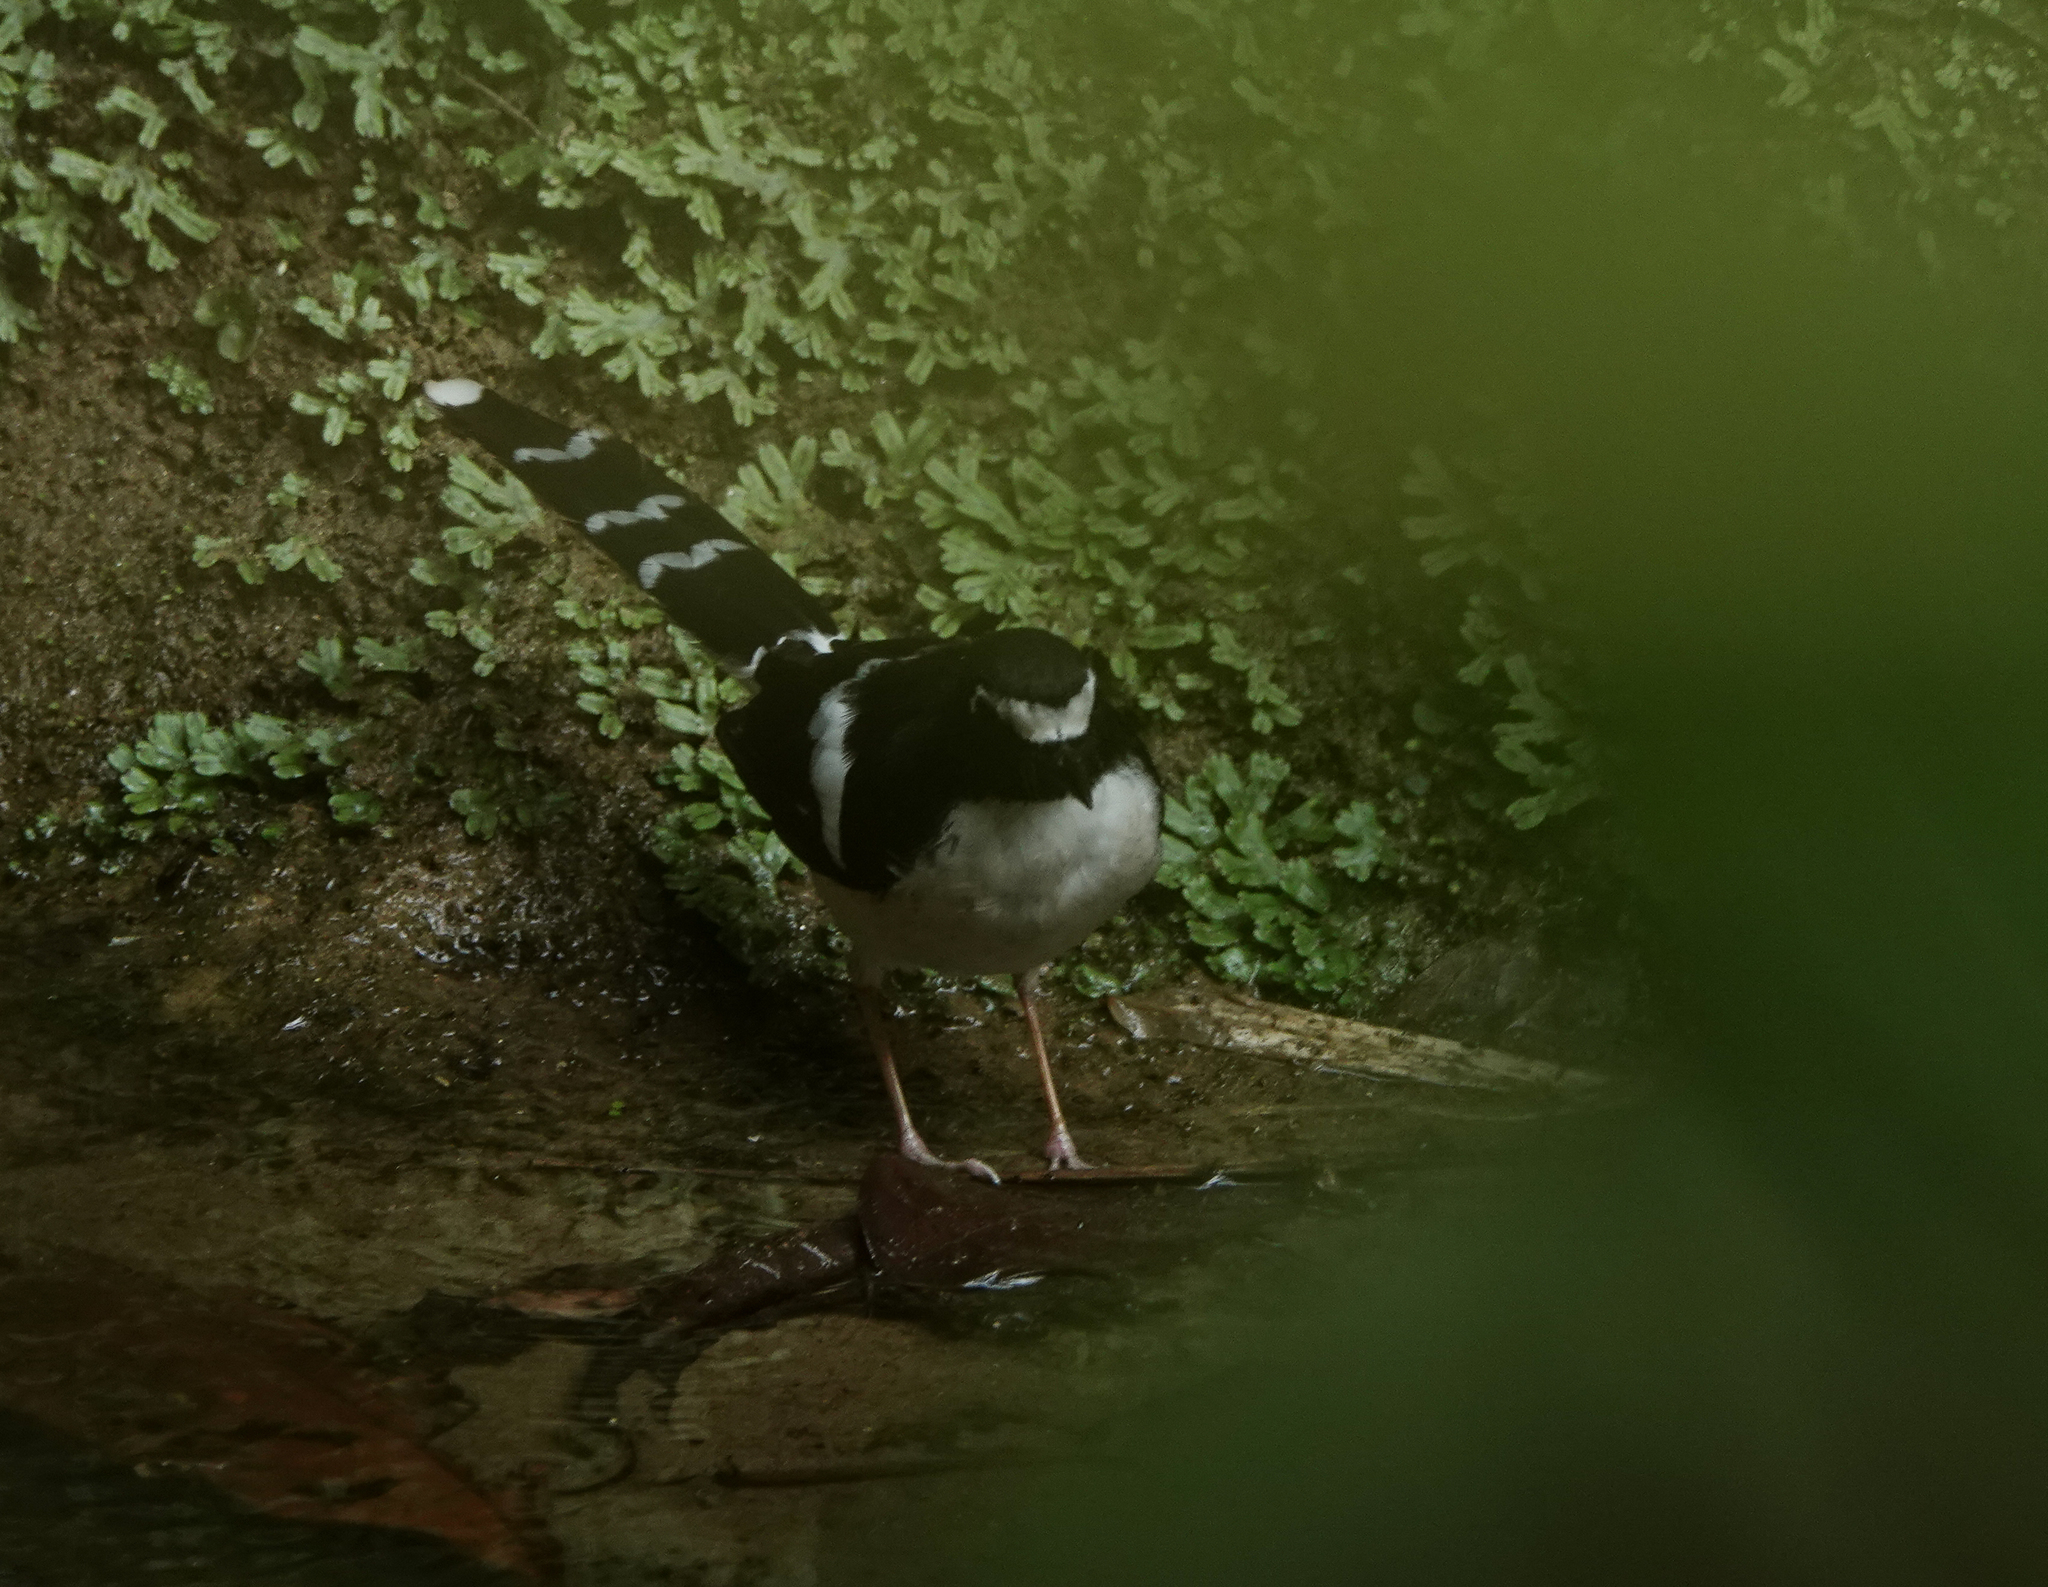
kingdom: Animalia
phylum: Chordata
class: Aves
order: Passeriformes
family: Muscicapidae
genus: Enicurus
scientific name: Enicurus immaculatus
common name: Black-backed forktail
